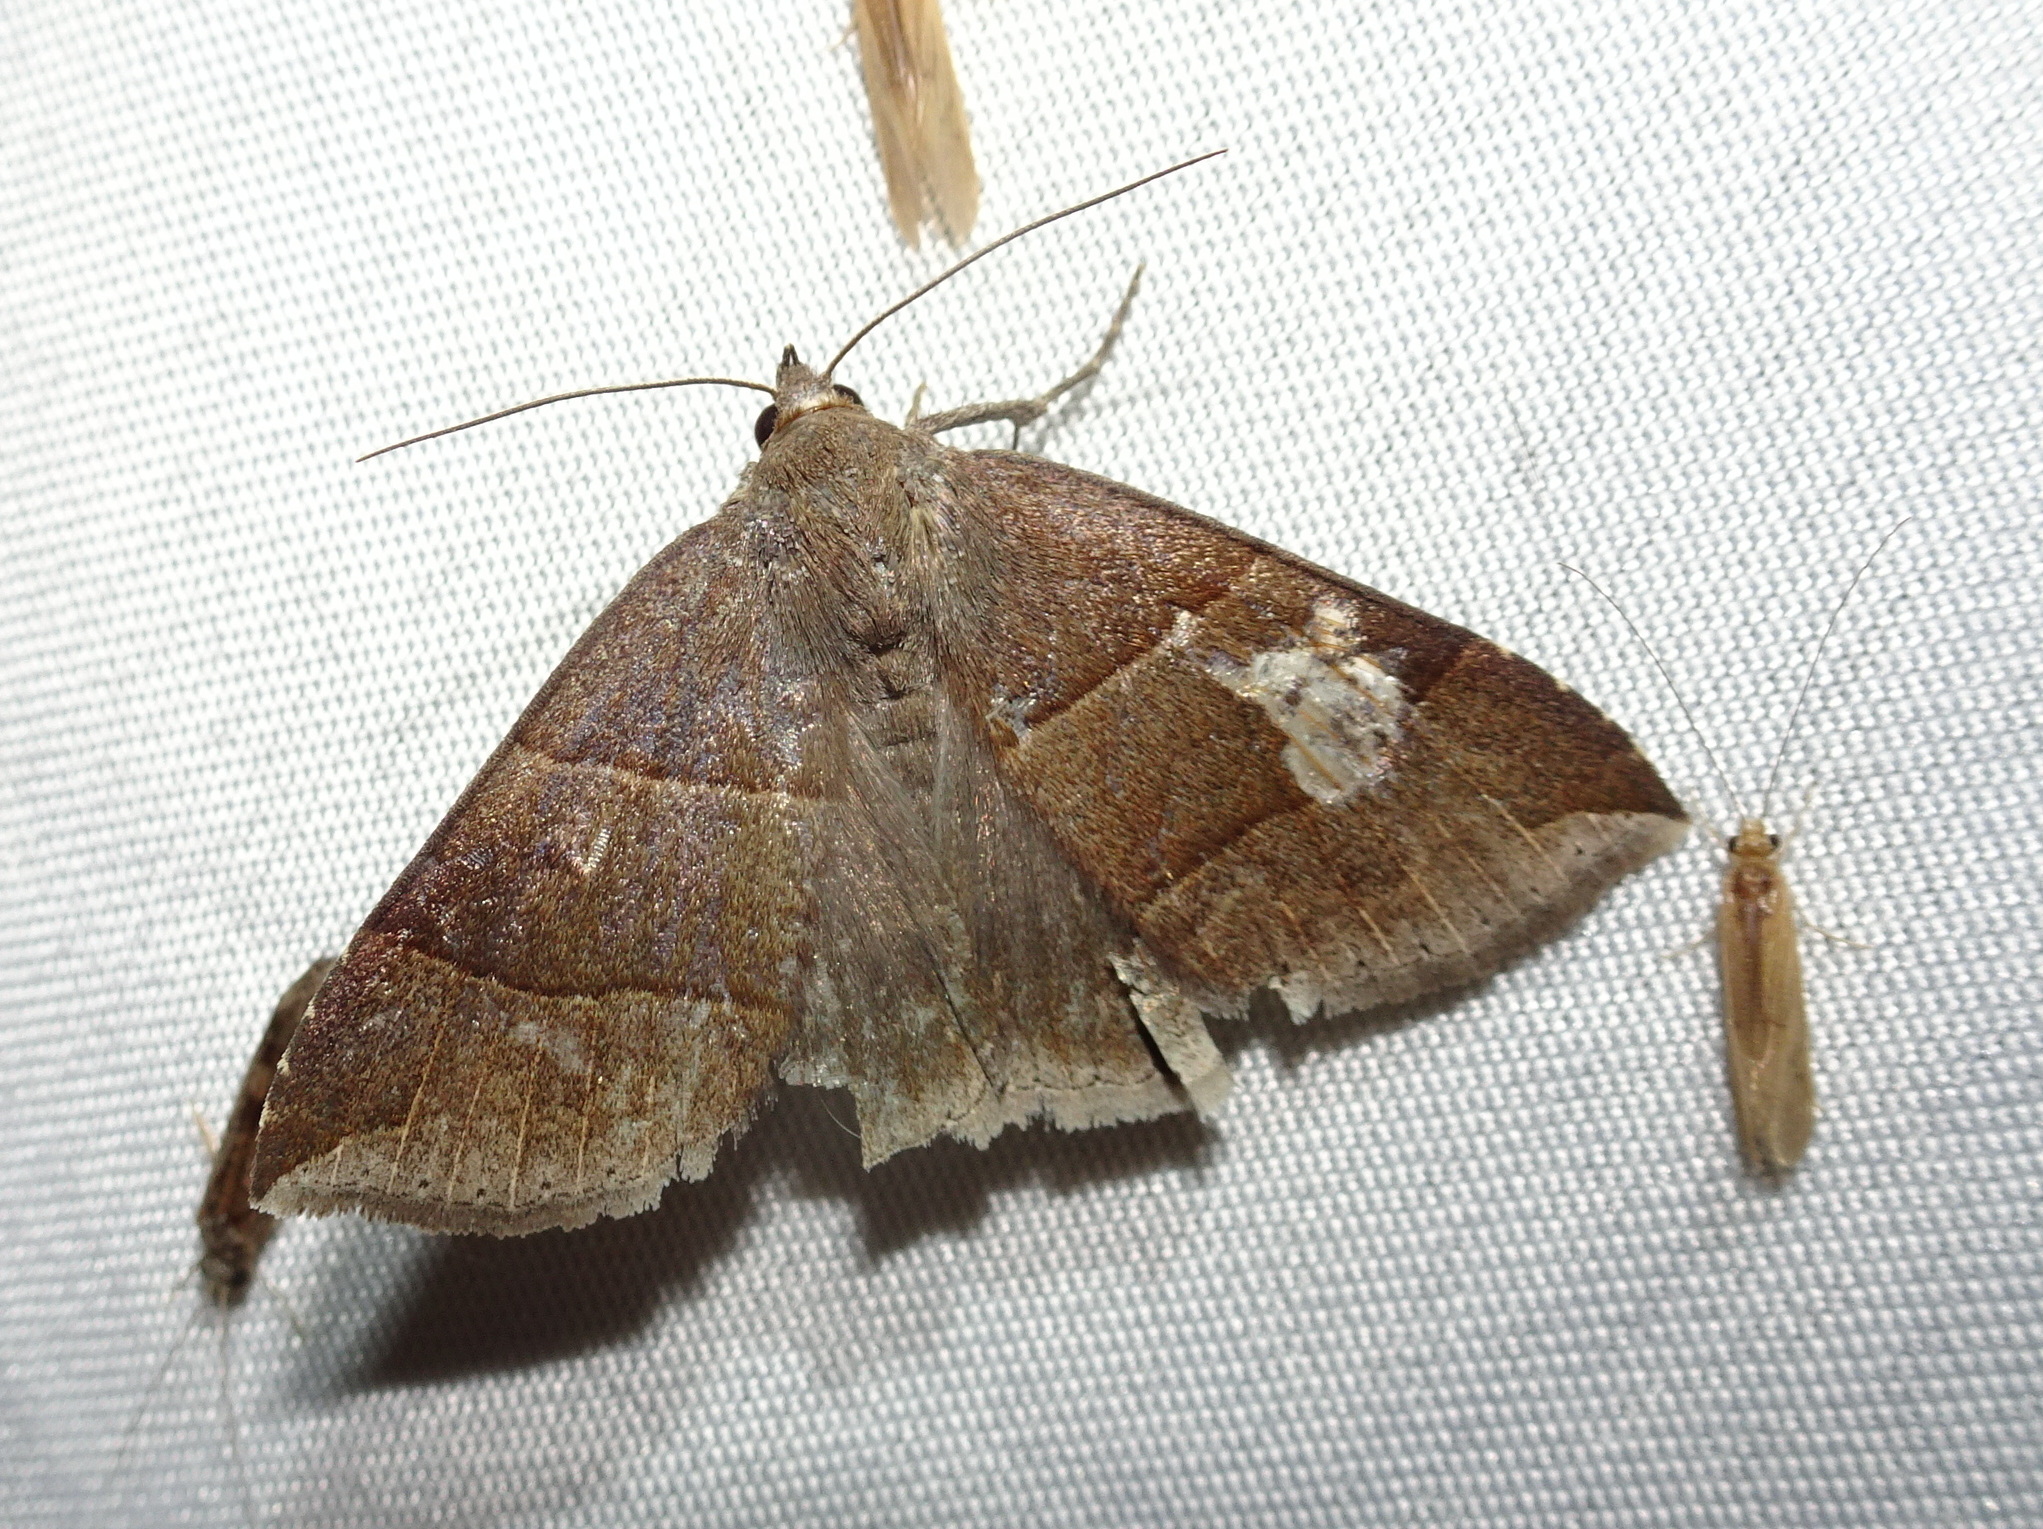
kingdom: Animalia
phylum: Arthropoda
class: Insecta
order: Lepidoptera
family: Erebidae
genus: Parallelia
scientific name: Parallelia bistriaris
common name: Maple looper moth
